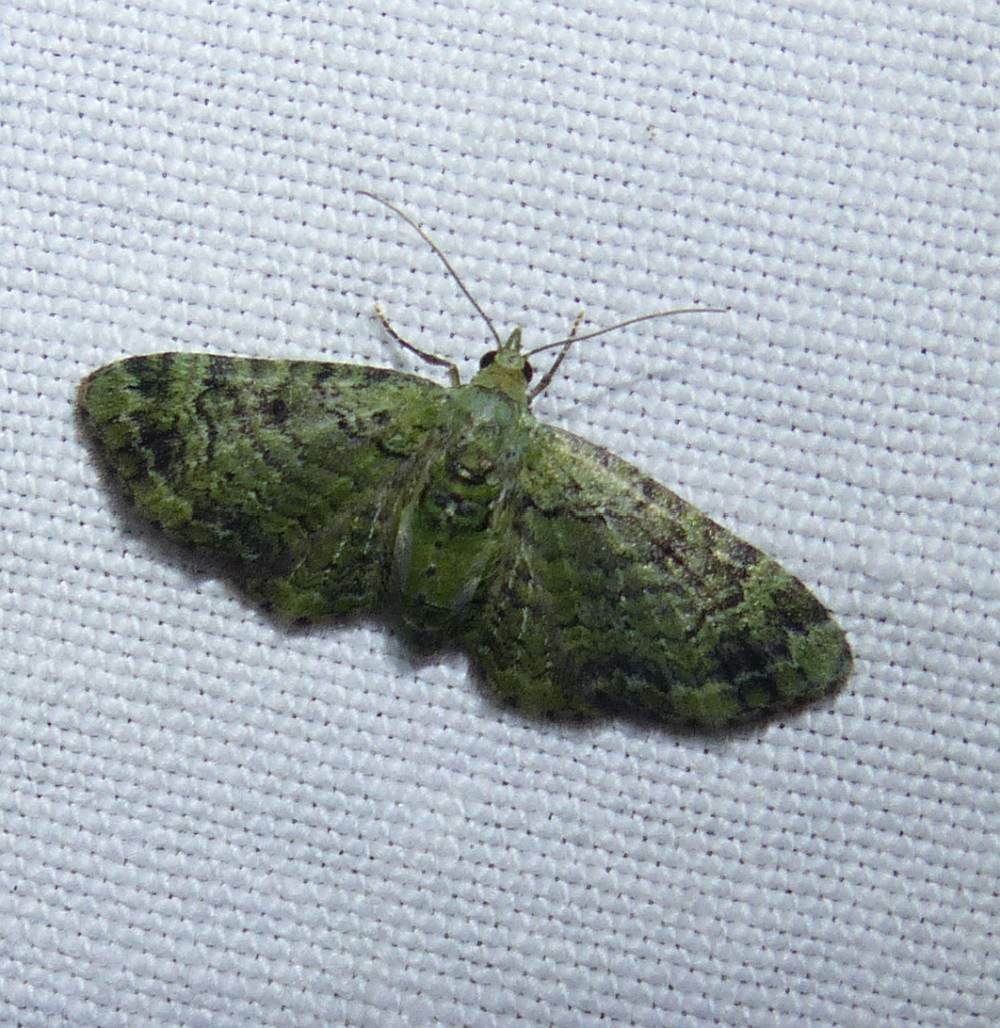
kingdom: Animalia
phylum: Arthropoda
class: Insecta
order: Lepidoptera
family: Geometridae
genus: Pasiphila
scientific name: Pasiphila rectangulata
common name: Green pug
